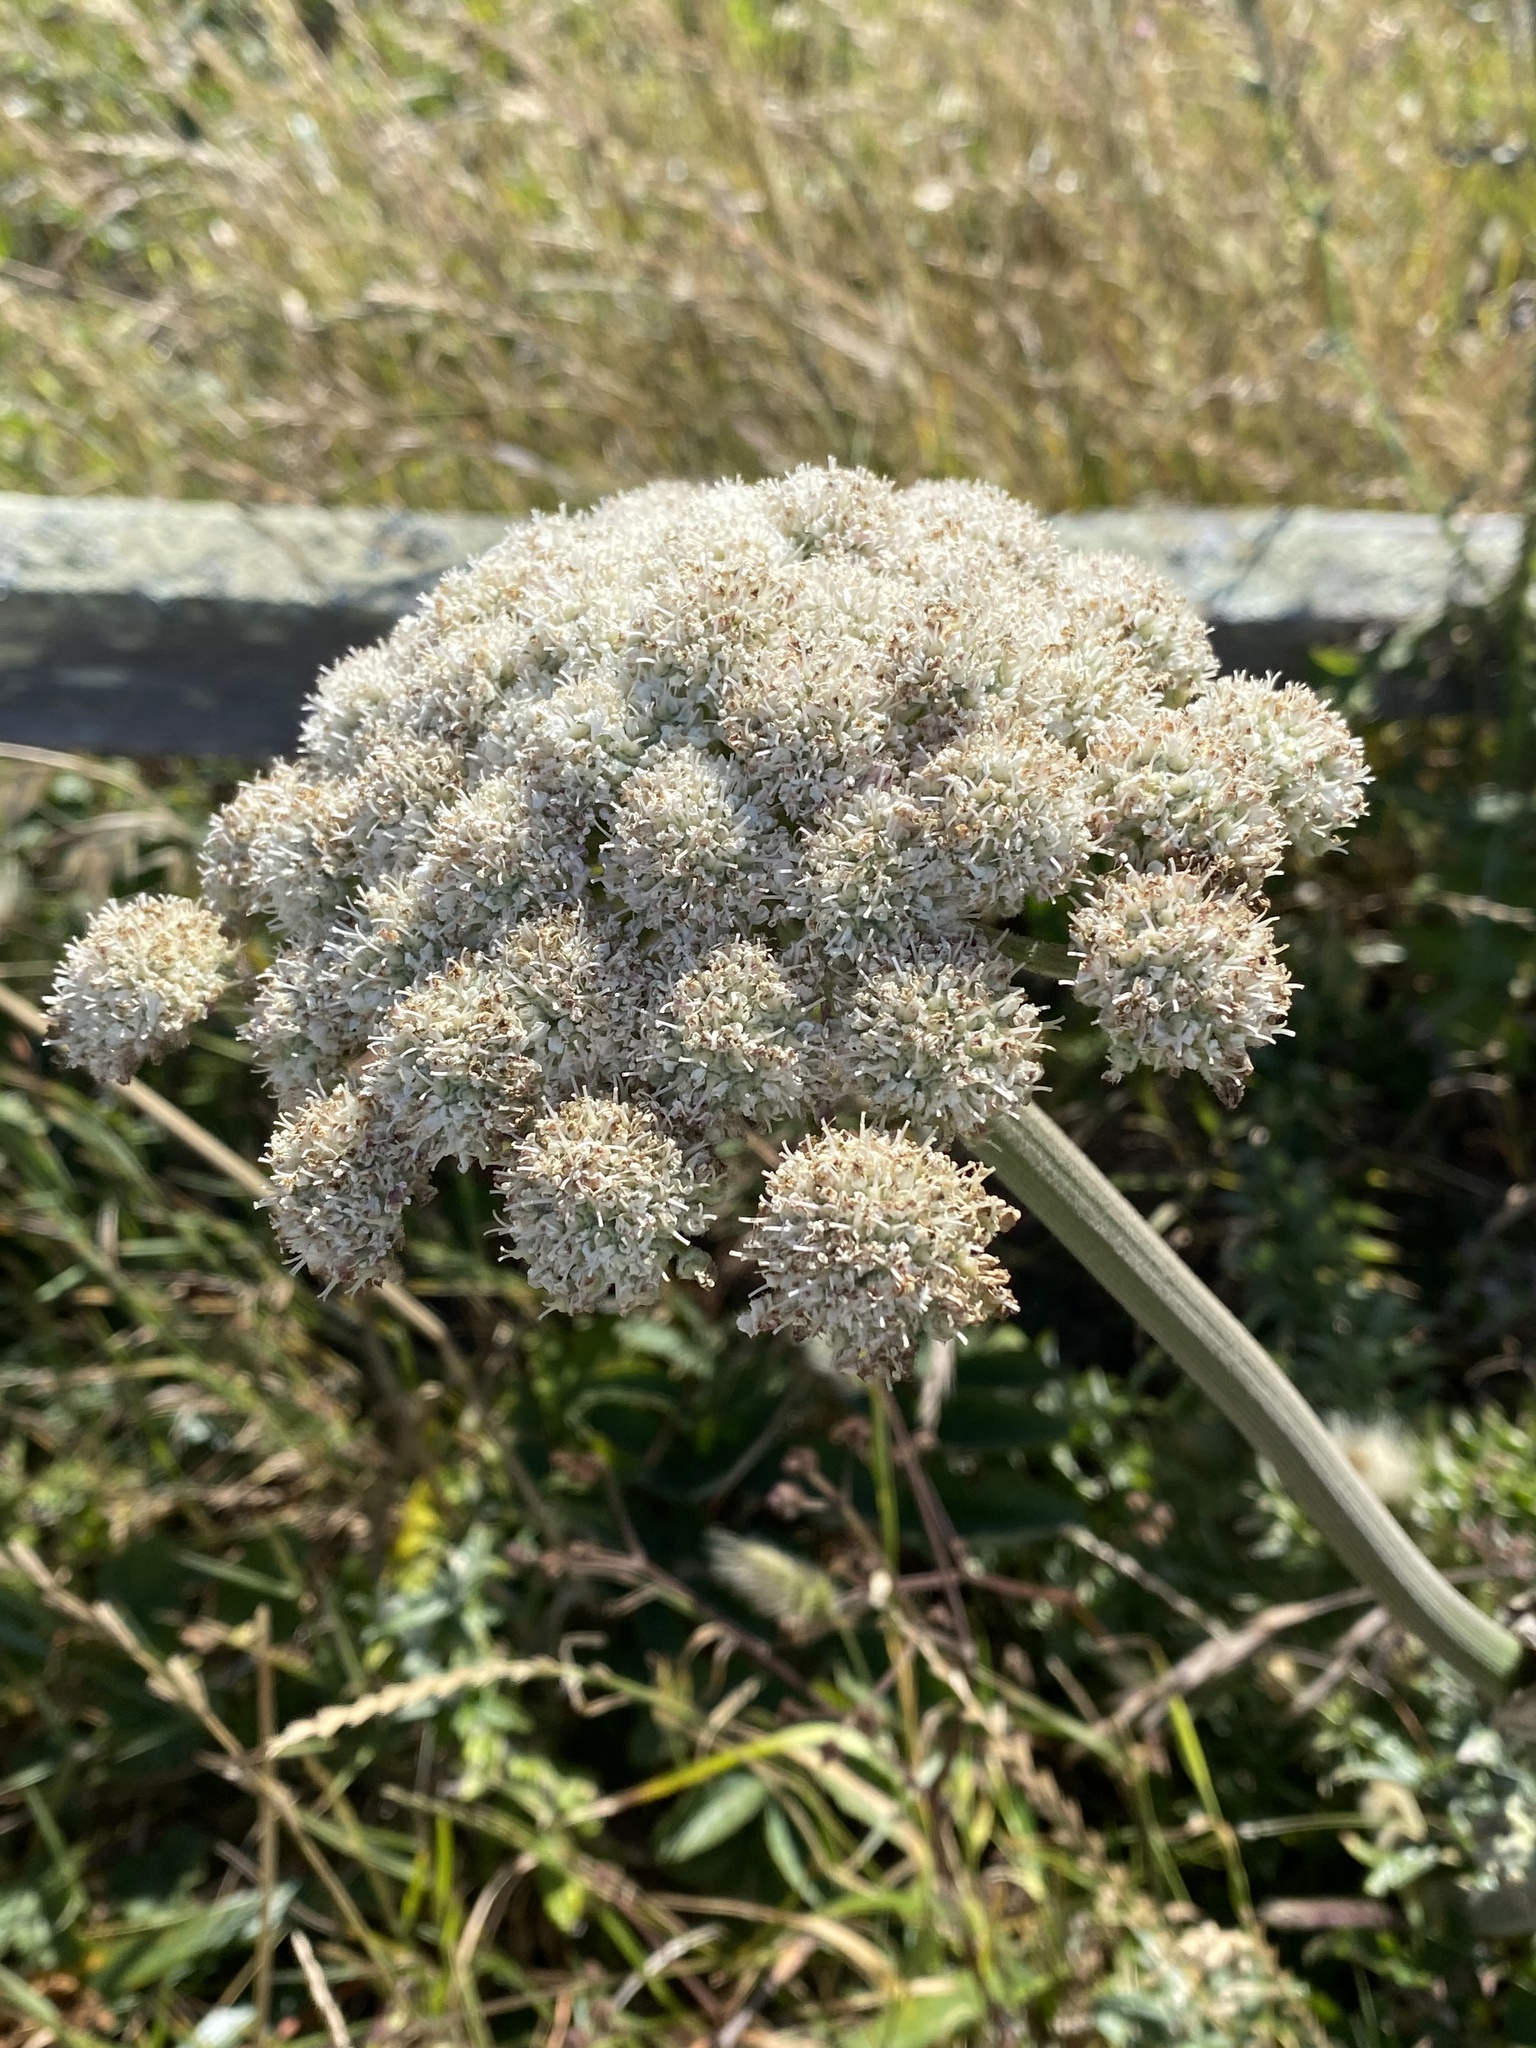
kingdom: Plantae
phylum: Tracheophyta
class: Magnoliopsida
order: Apiales
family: Apiaceae
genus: Angelica
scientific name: Angelica hendersonii
